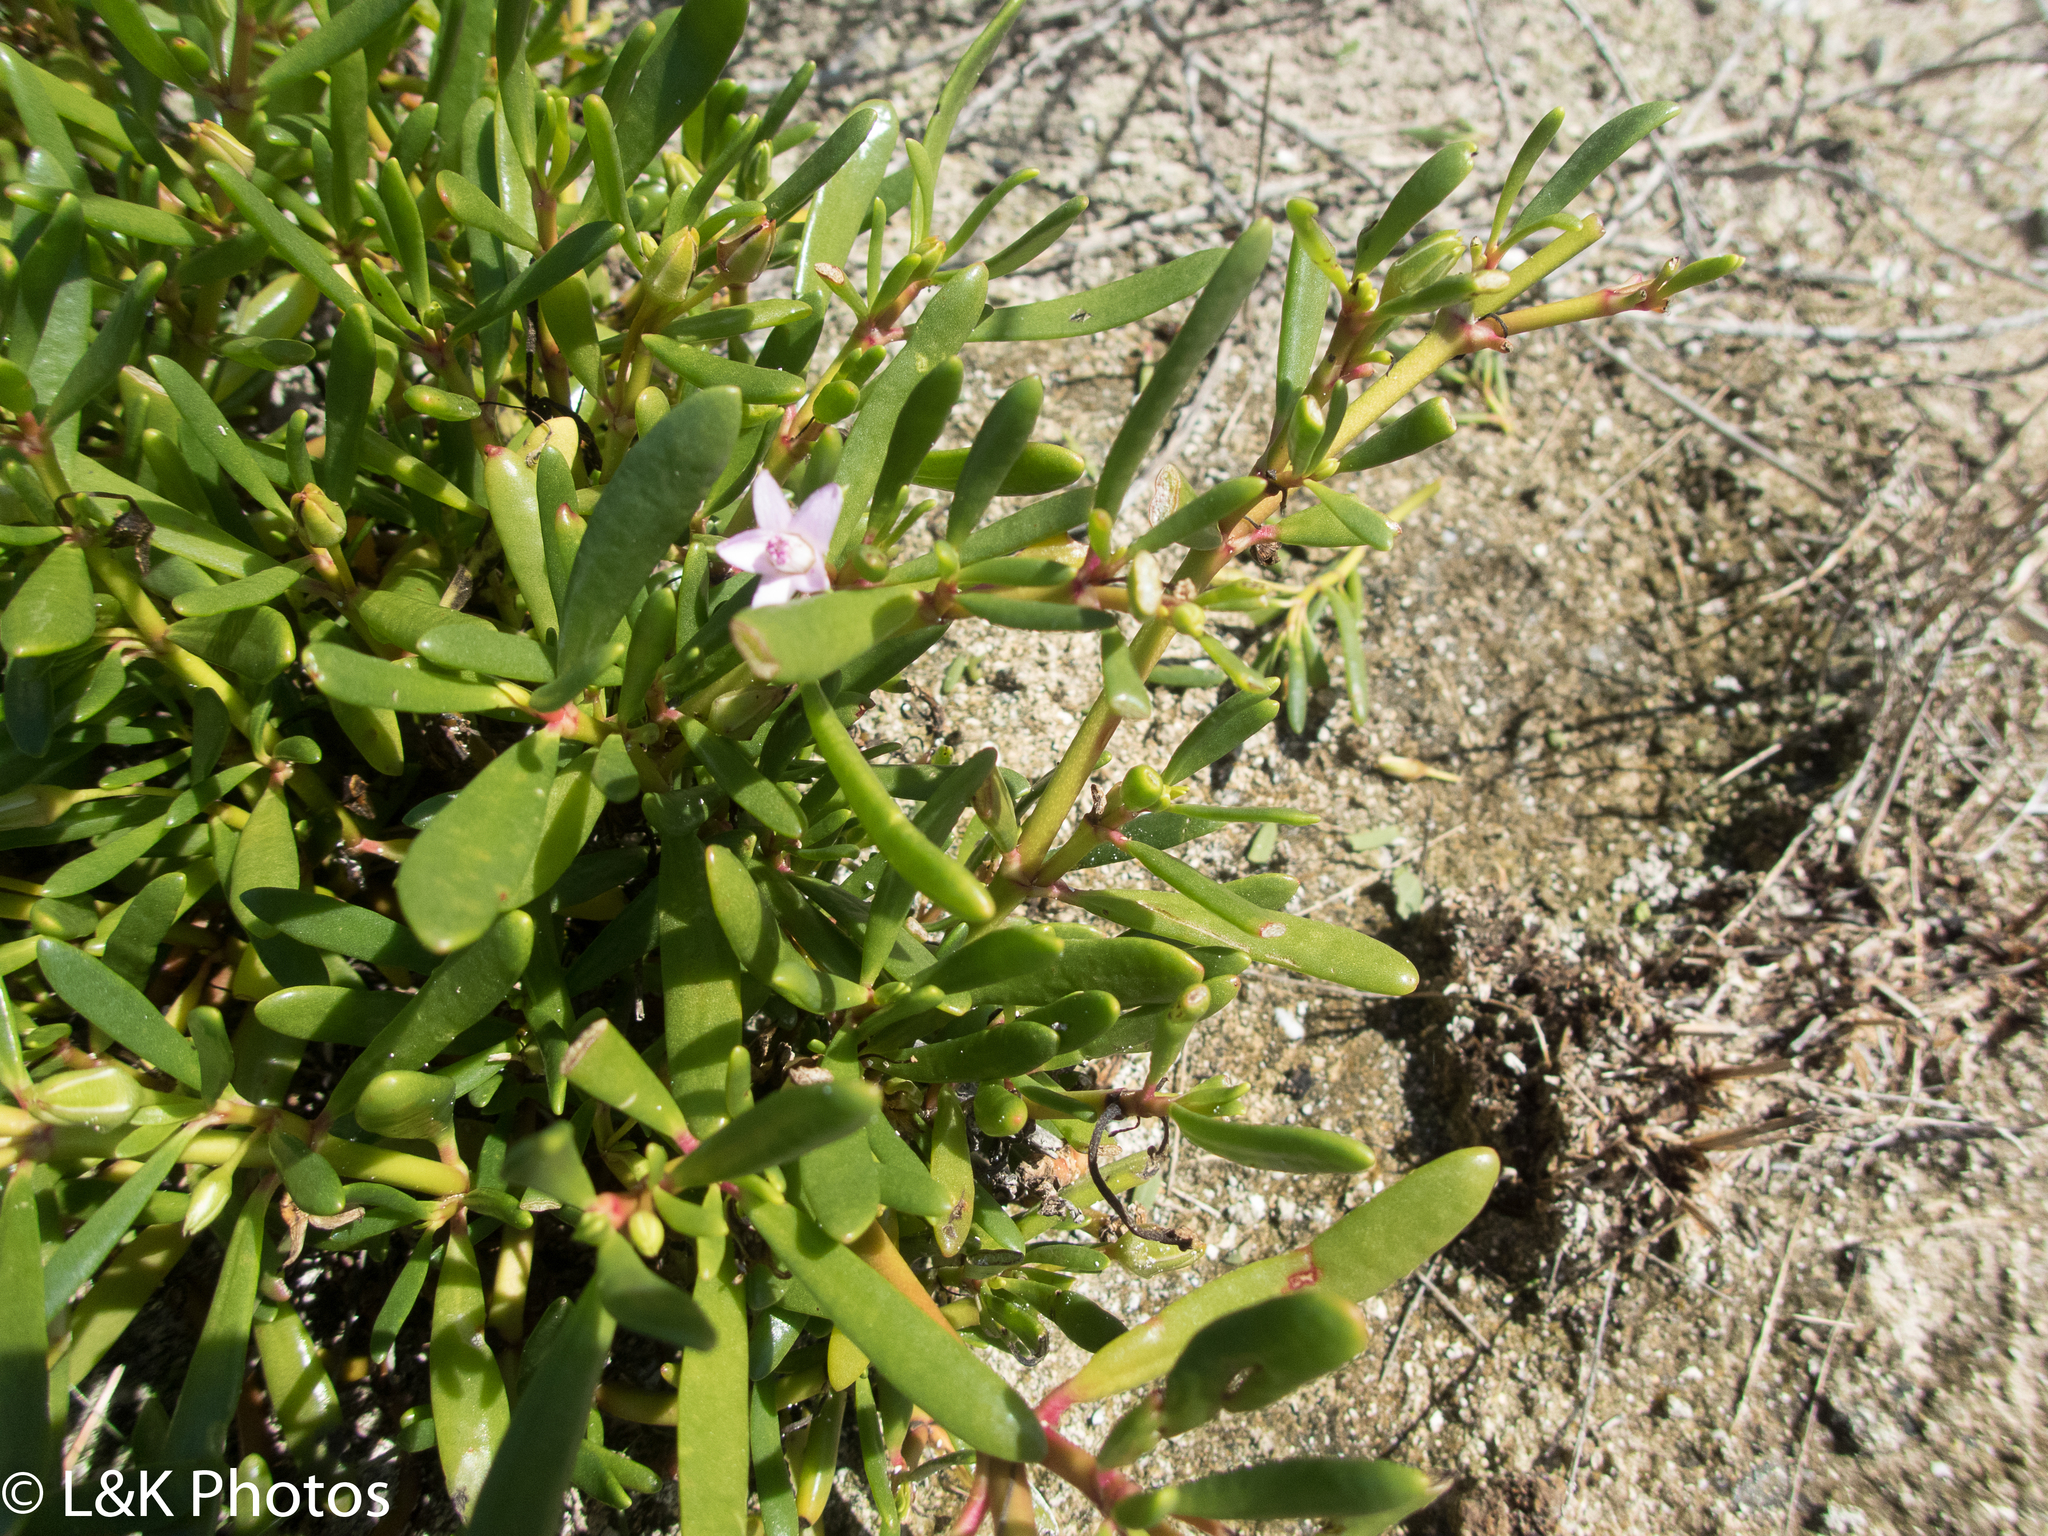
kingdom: Plantae
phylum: Tracheophyta
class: Magnoliopsida
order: Caryophyllales
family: Aizoaceae
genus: Sesuvium
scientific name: Sesuvium portulacastrum
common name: Sea-purslane
